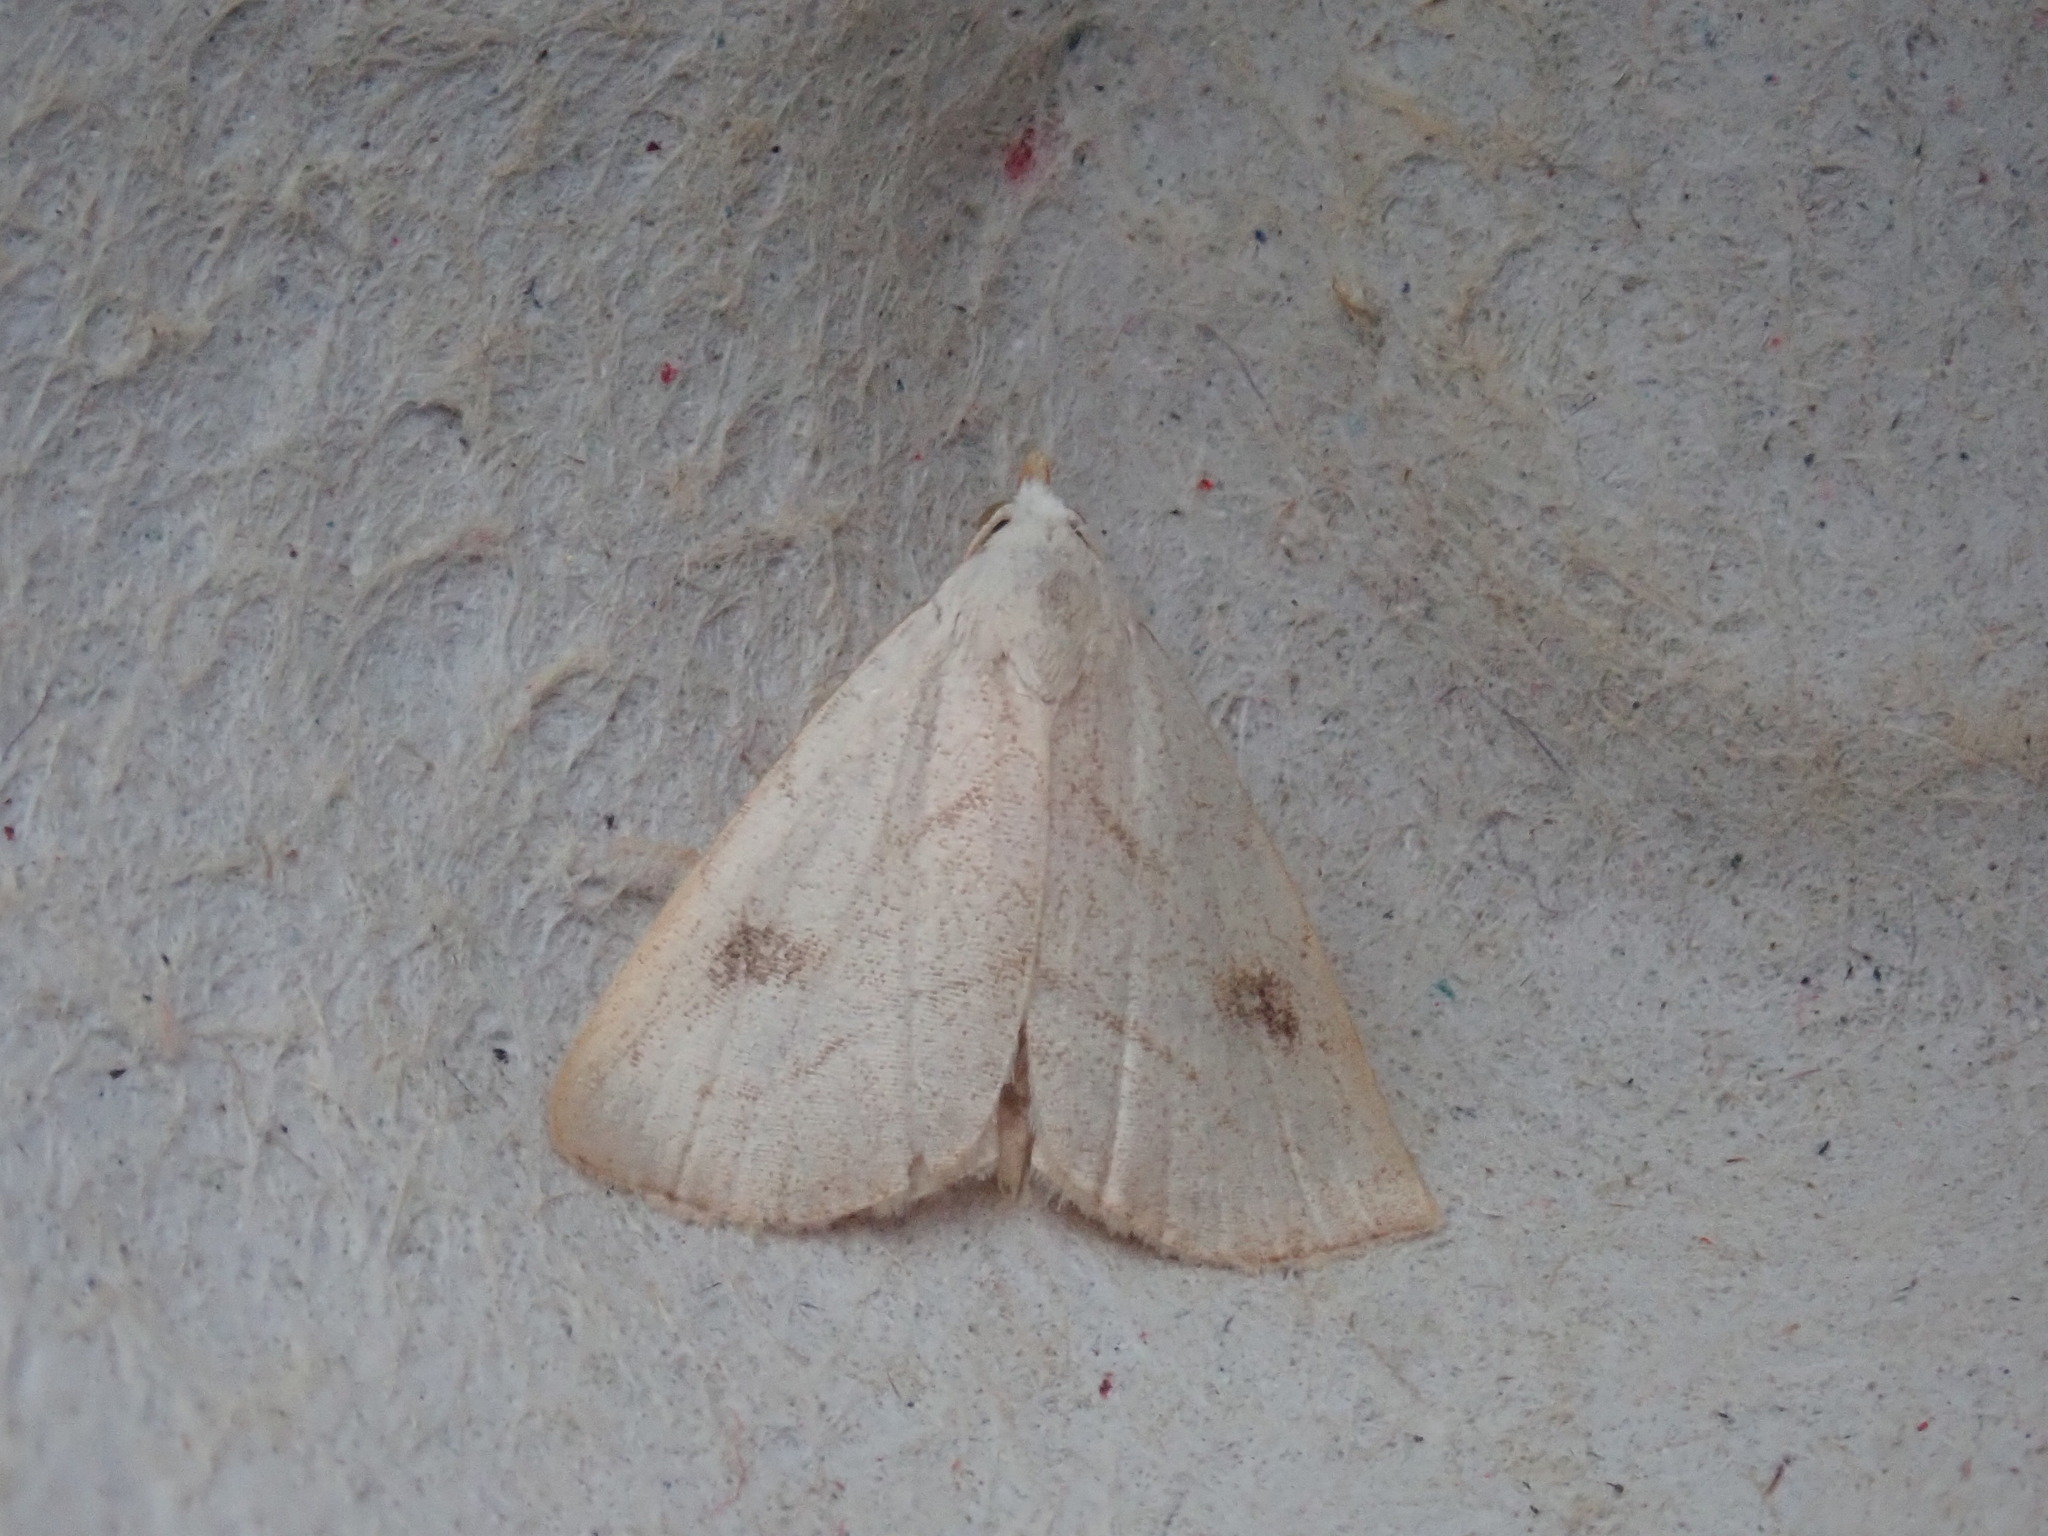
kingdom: Animalia
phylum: Arthropoda
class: Insecta
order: Lepidoptera
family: Erebidae
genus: Rivula
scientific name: Rivula propinqualis
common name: Spotted grass moth
